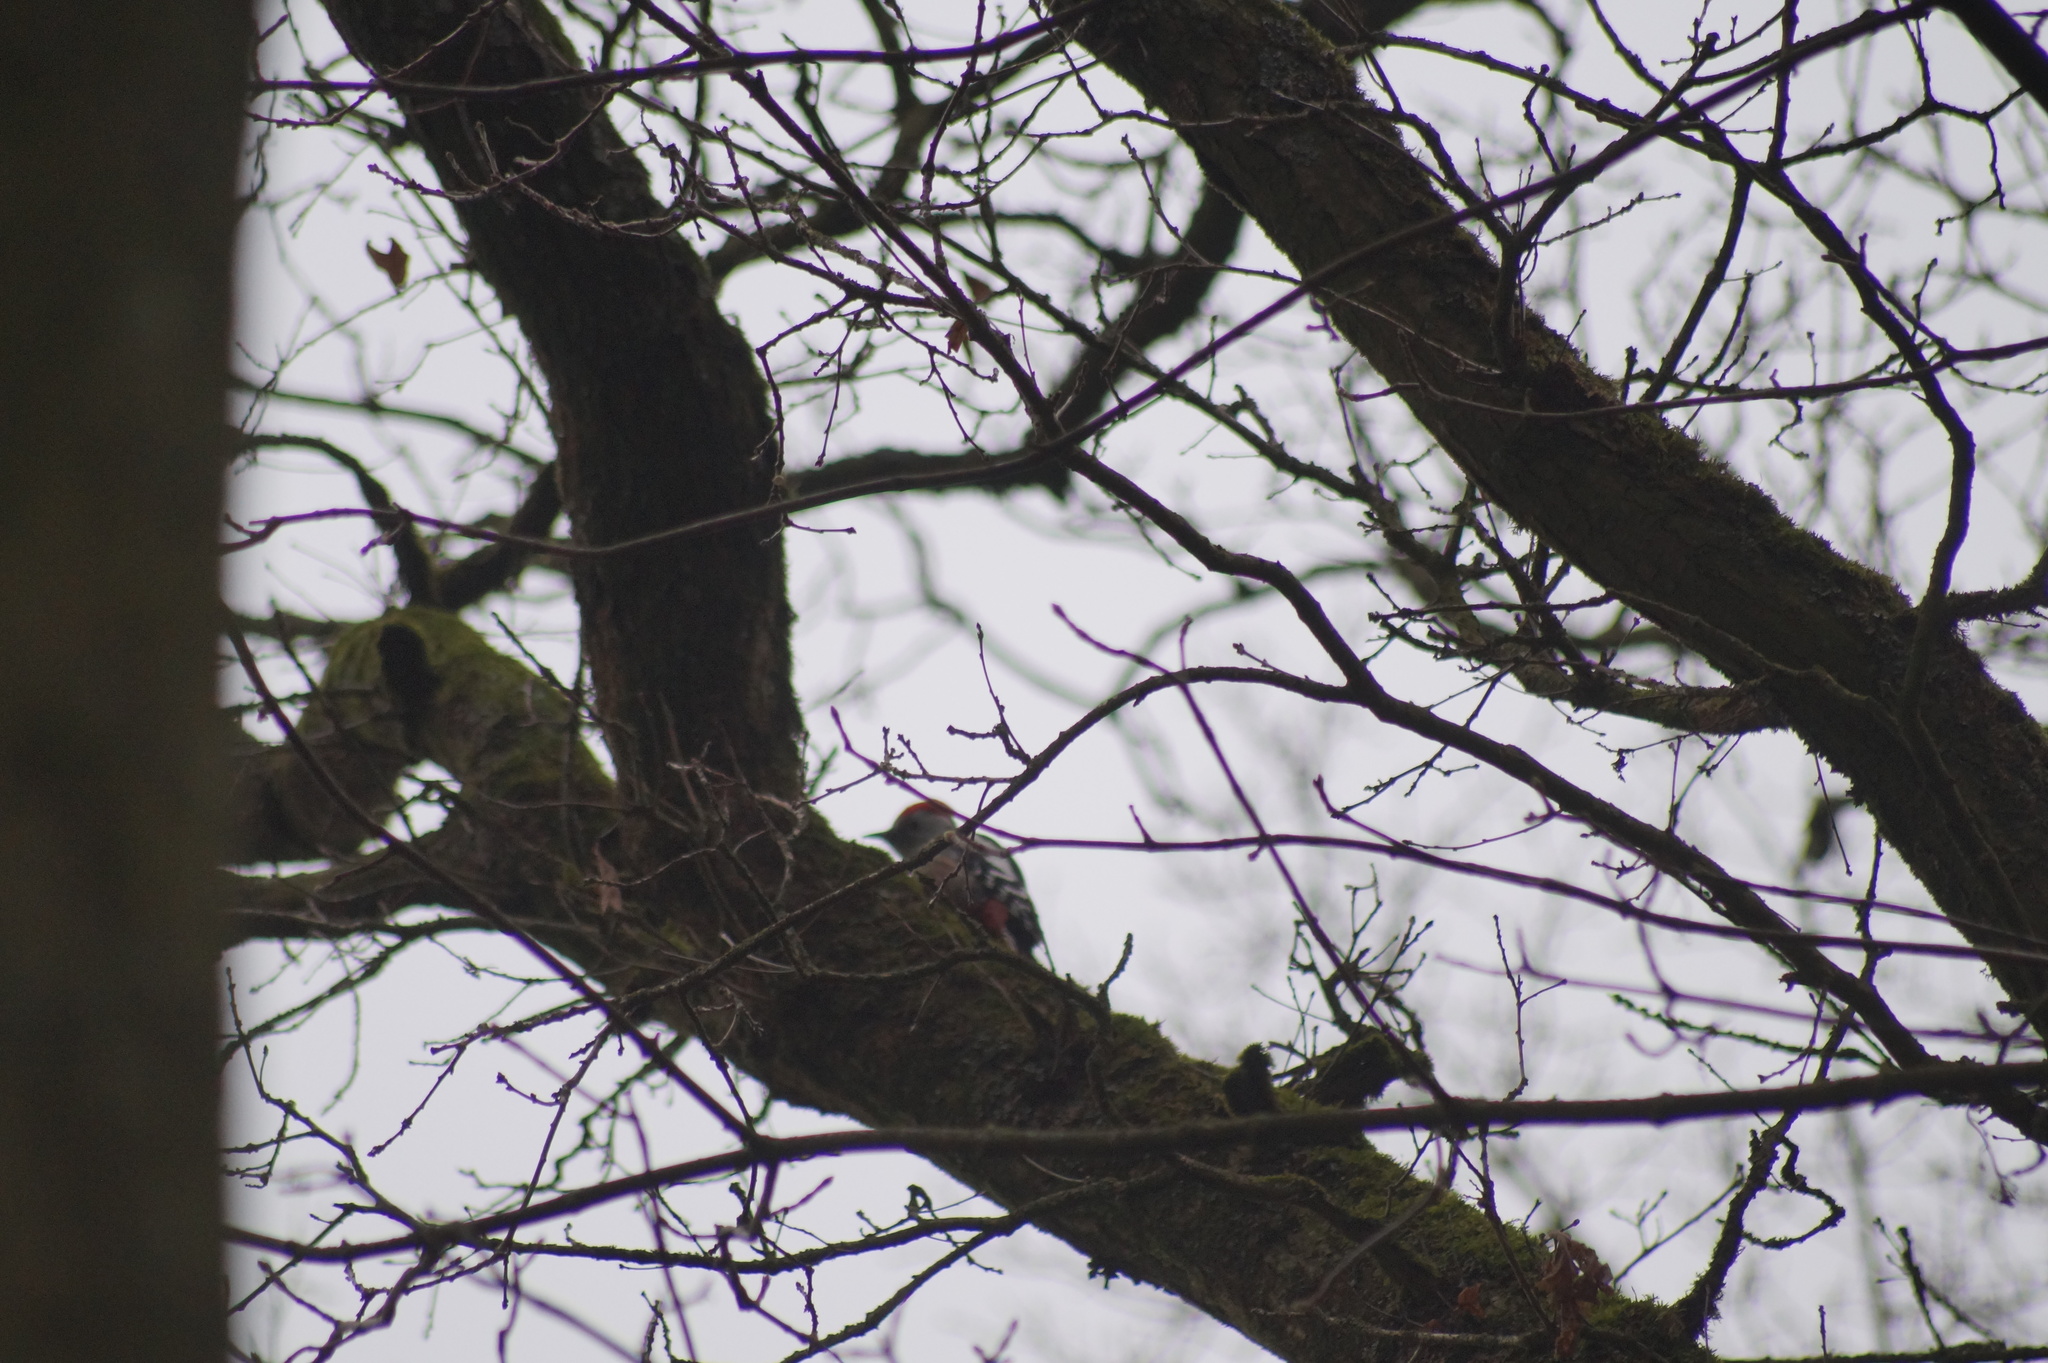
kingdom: Animalia
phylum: Chordata
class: Aves
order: Piciformes
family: Picidae
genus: Dendrocoptes
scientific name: Dendrocoptes medius
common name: Middle spotted woodpecker
